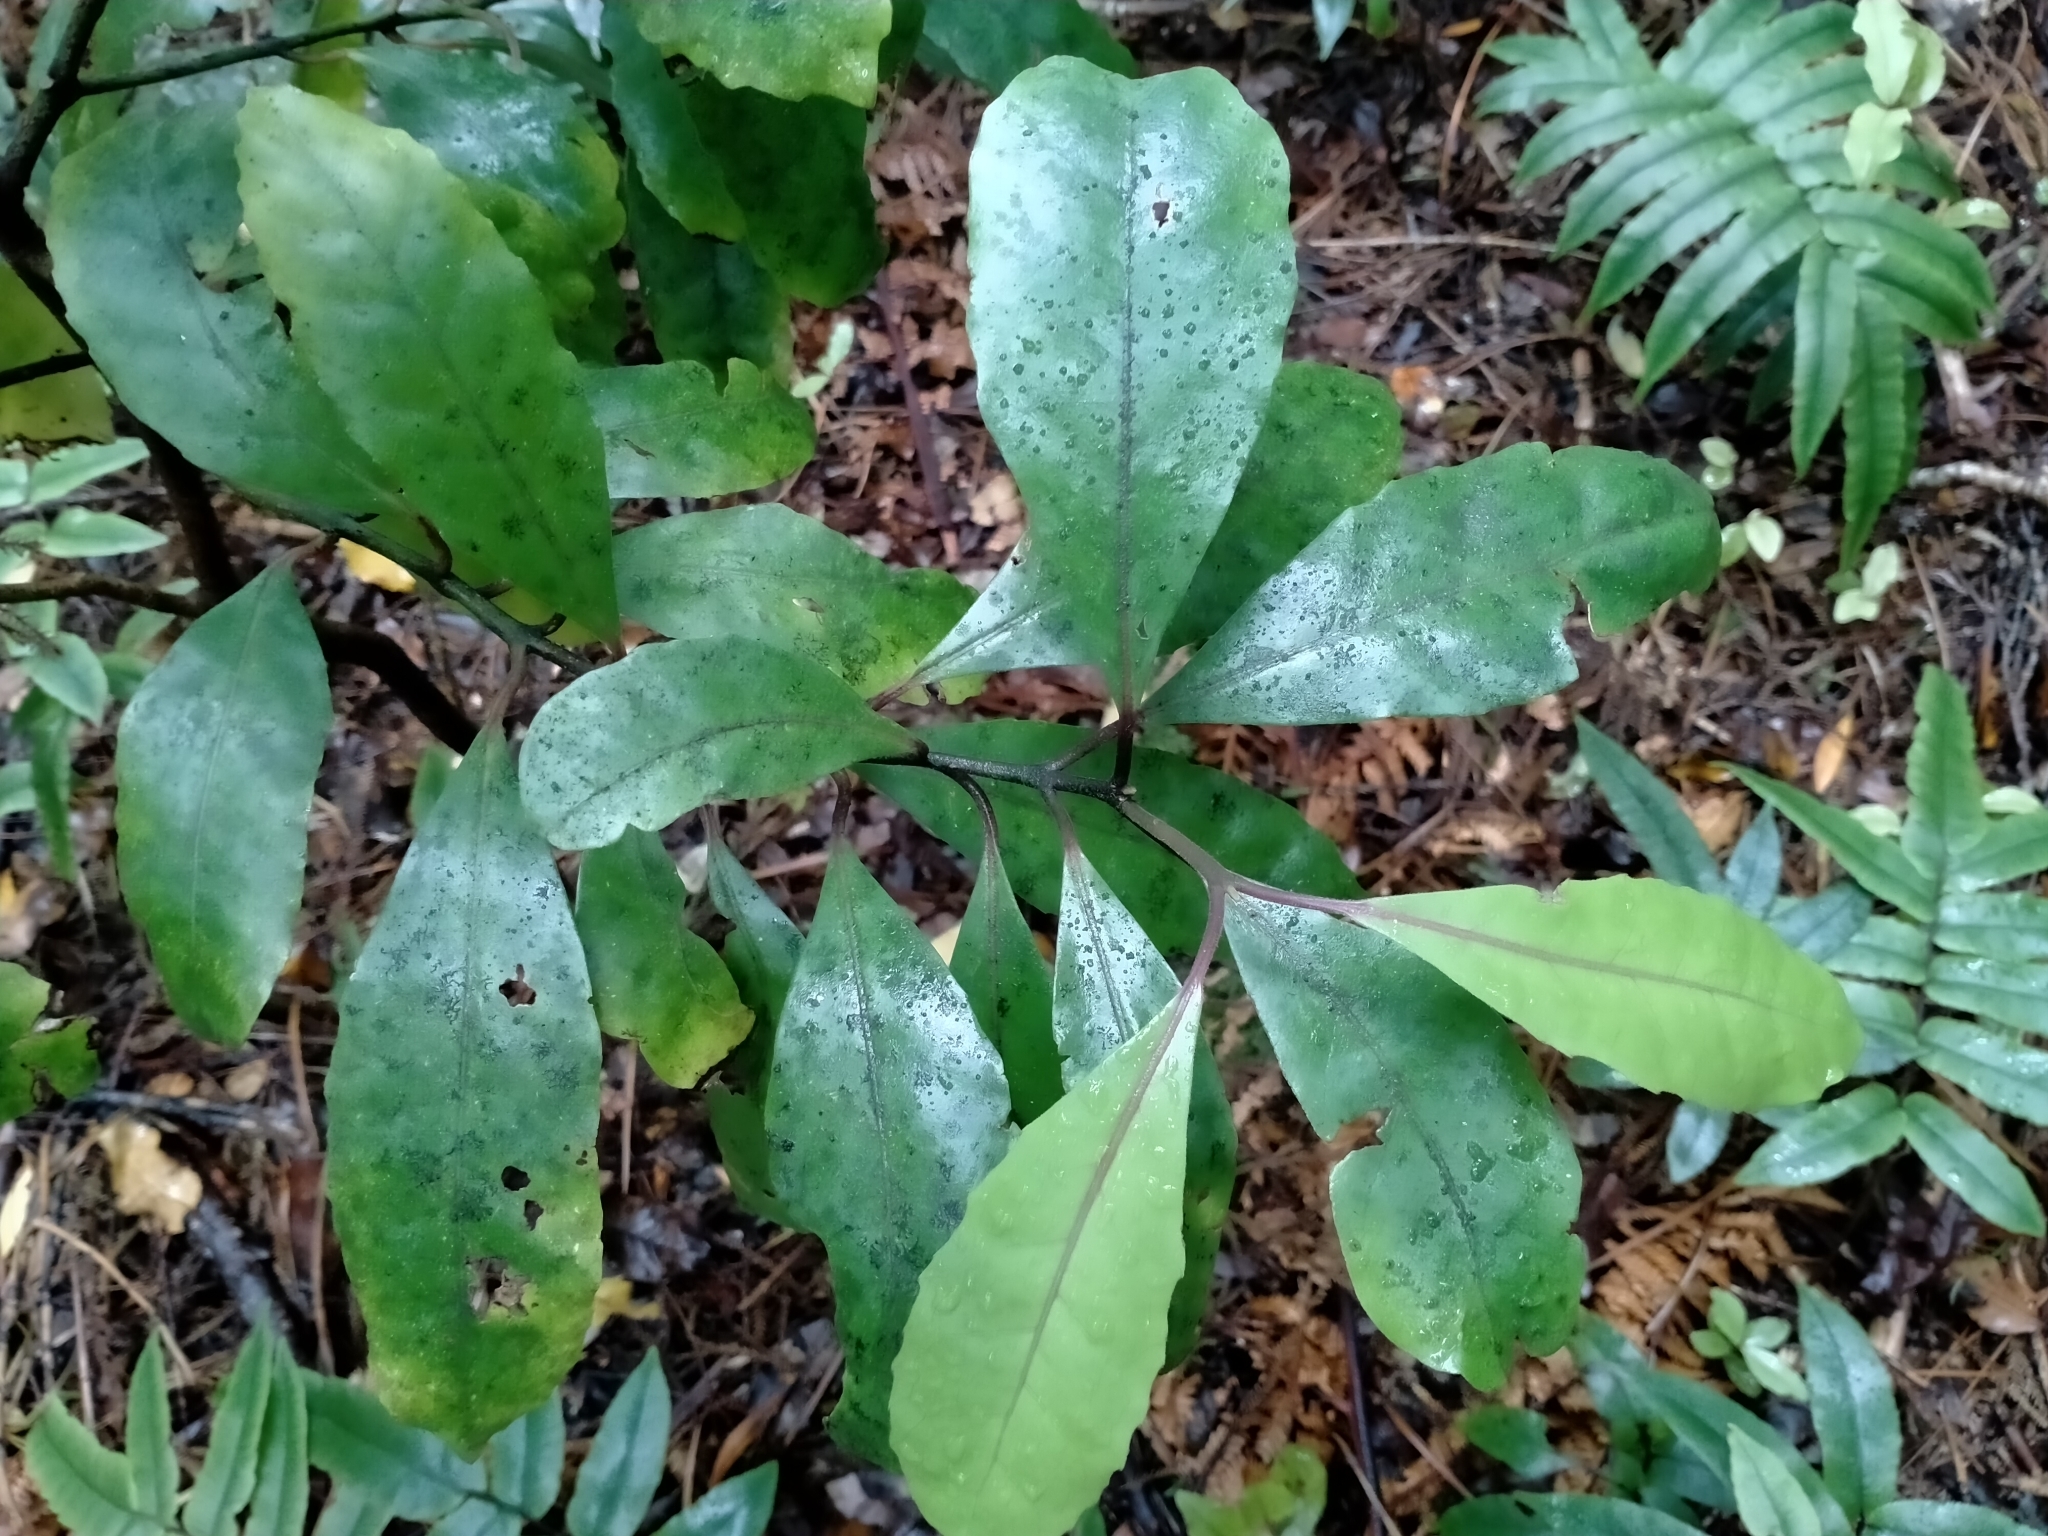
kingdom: Plantae
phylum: Tracheophyta
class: Magnoliopsida
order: Laurales
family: Monimiaceae
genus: Hedycarya
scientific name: Hedycarya arborea
